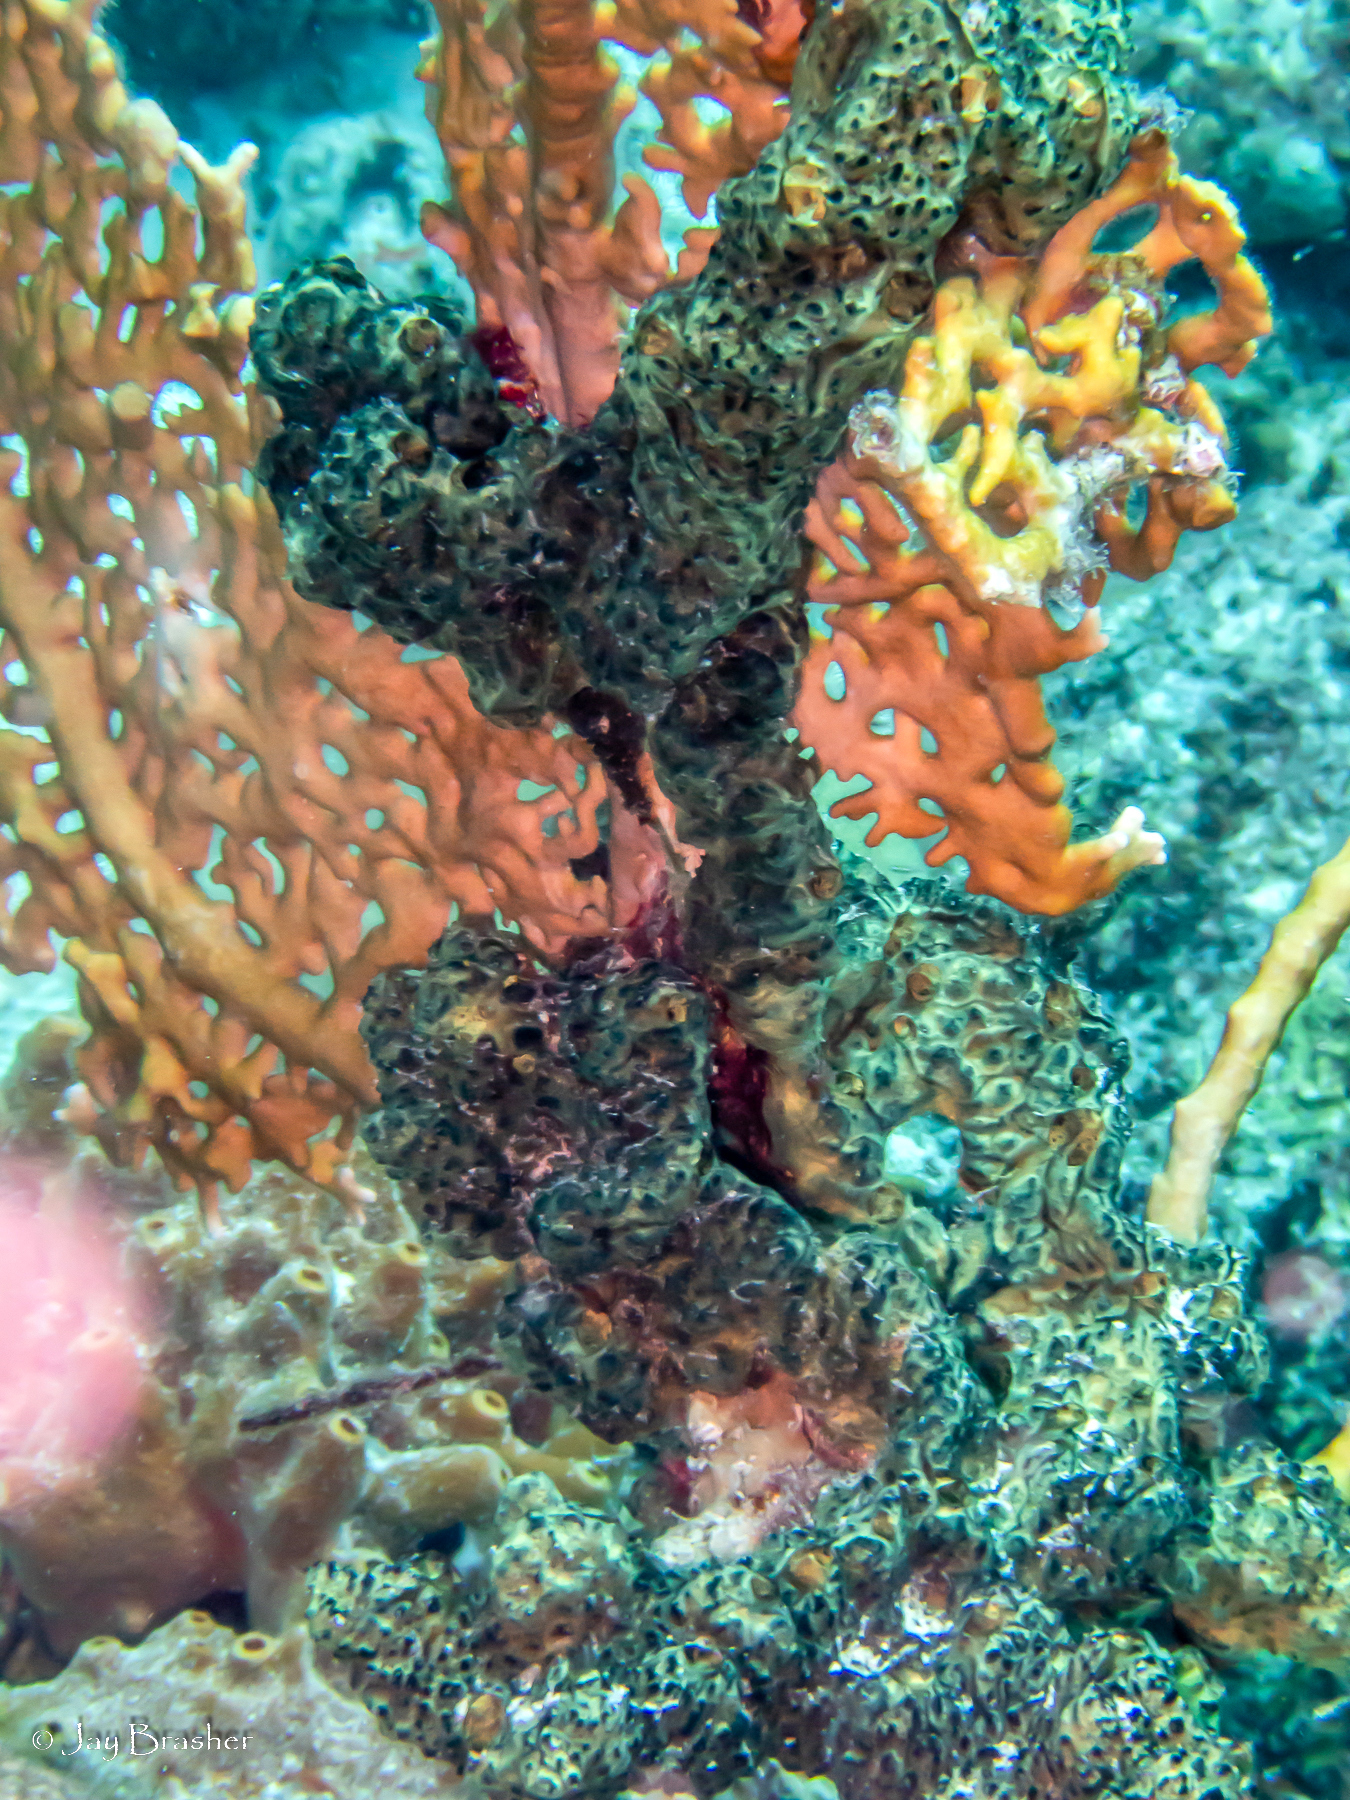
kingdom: Animalia
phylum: Porifera
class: Demospongiae
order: Poecilosclerida
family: Iotrochotidae
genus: Iotrochota
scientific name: Iotrochota birotulata
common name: Purple bleeding sponge
